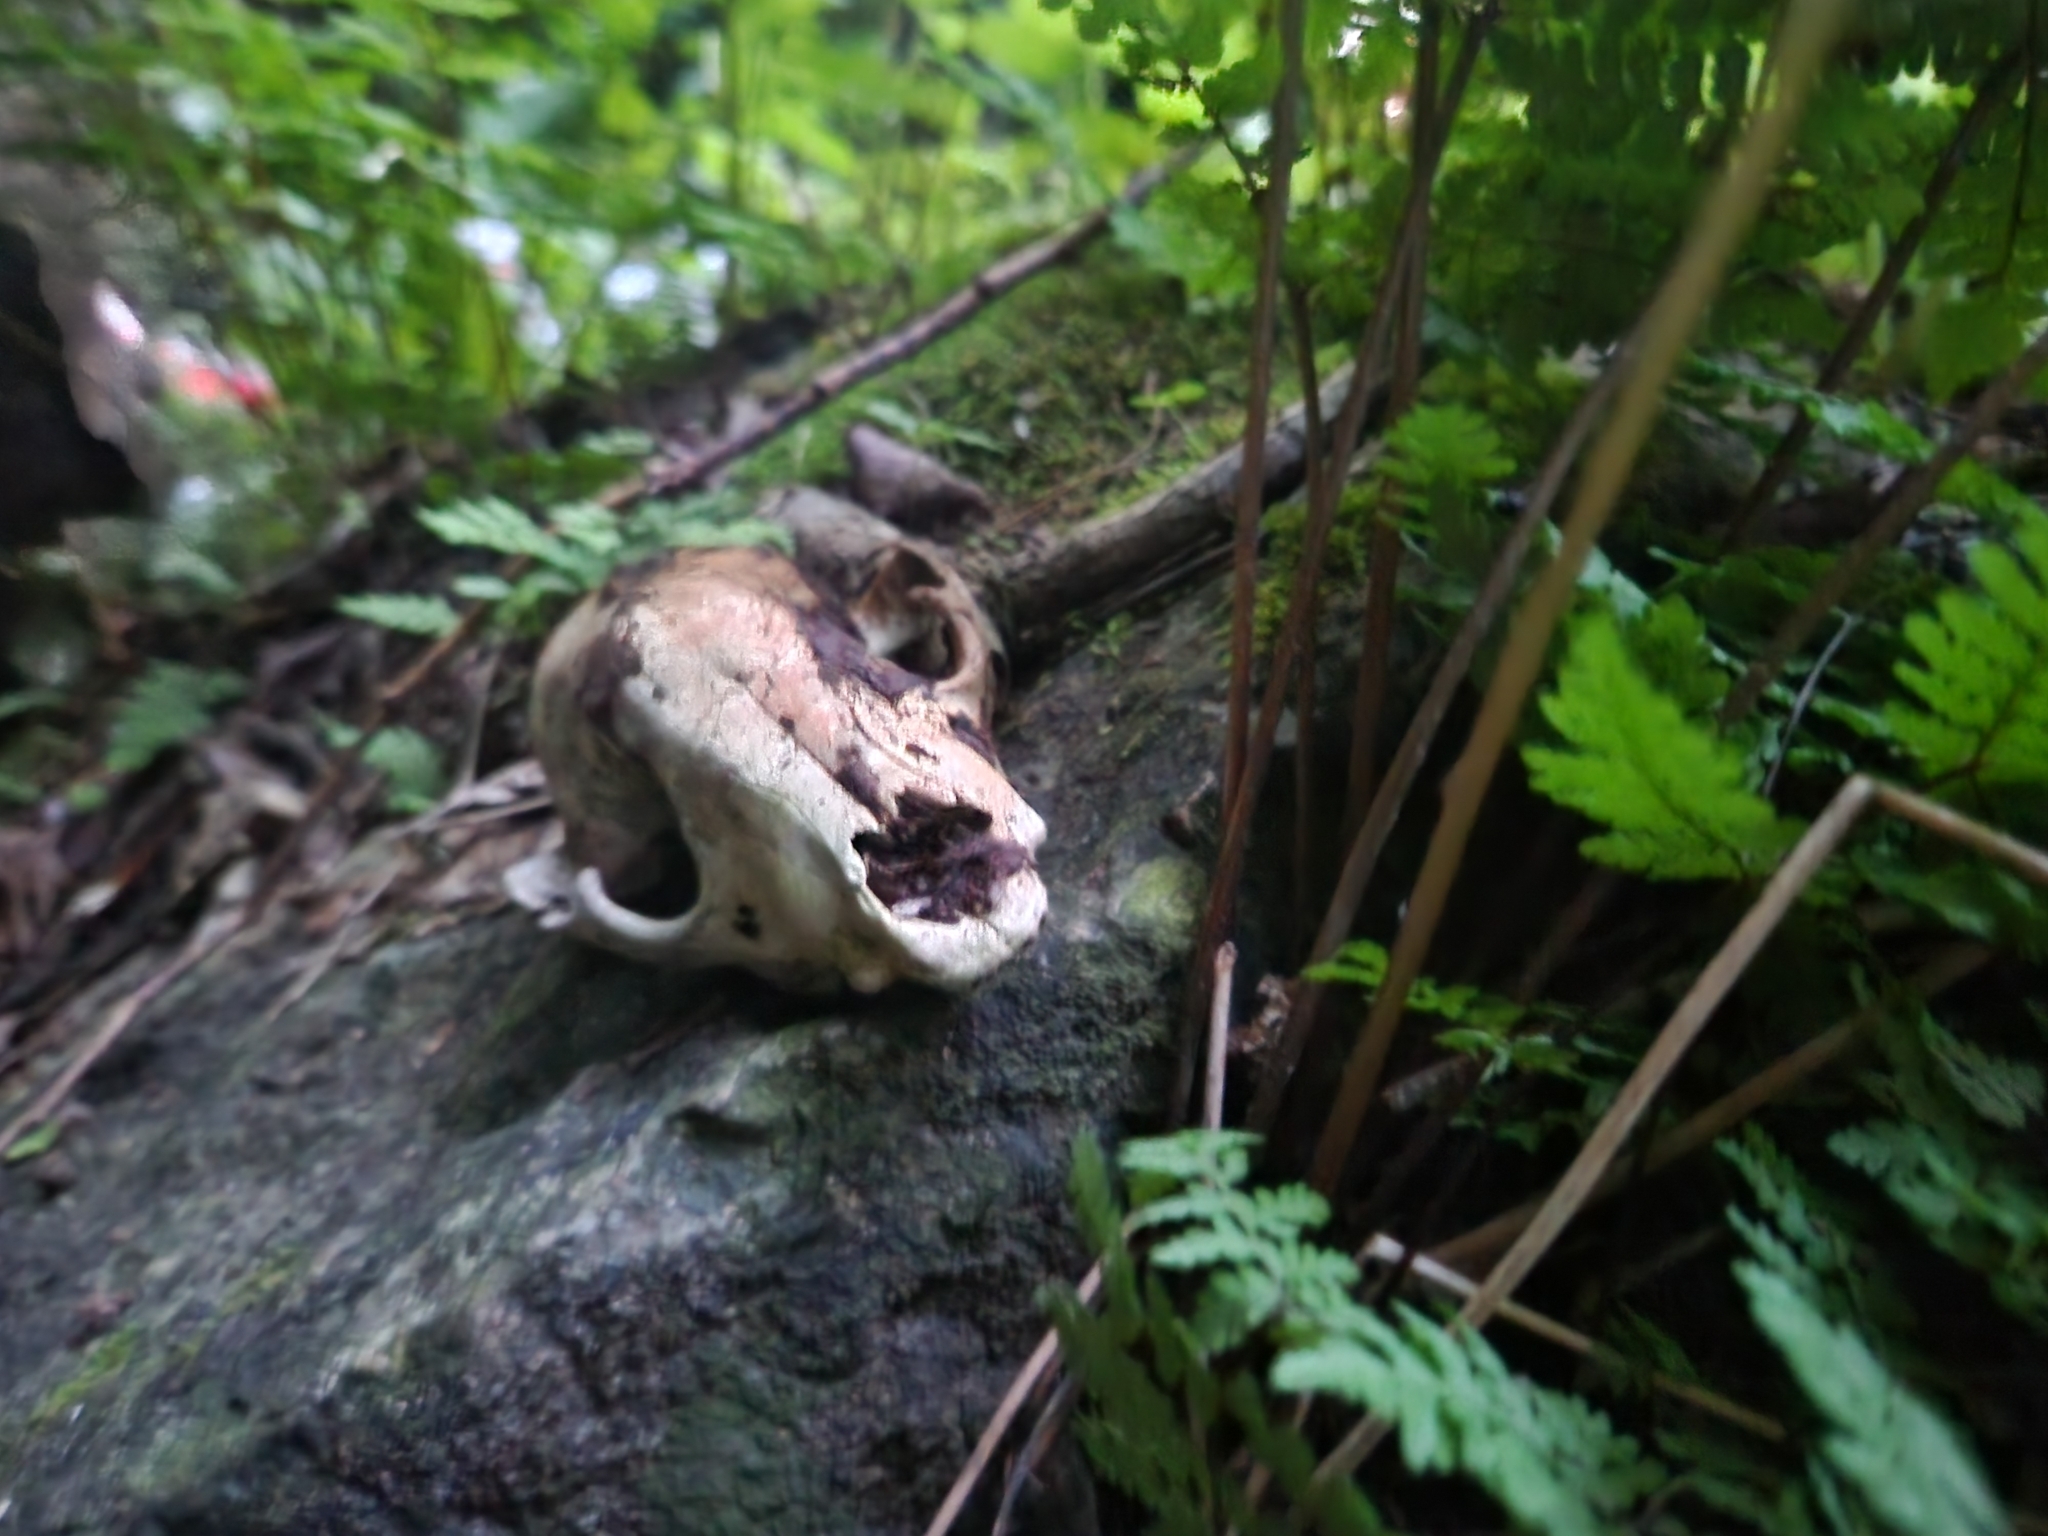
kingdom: Animalia
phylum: Chordata
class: Mammalia
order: Carnivora
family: Procyonidae
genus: Procyon
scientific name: Procyon lotor
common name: Raccoon
